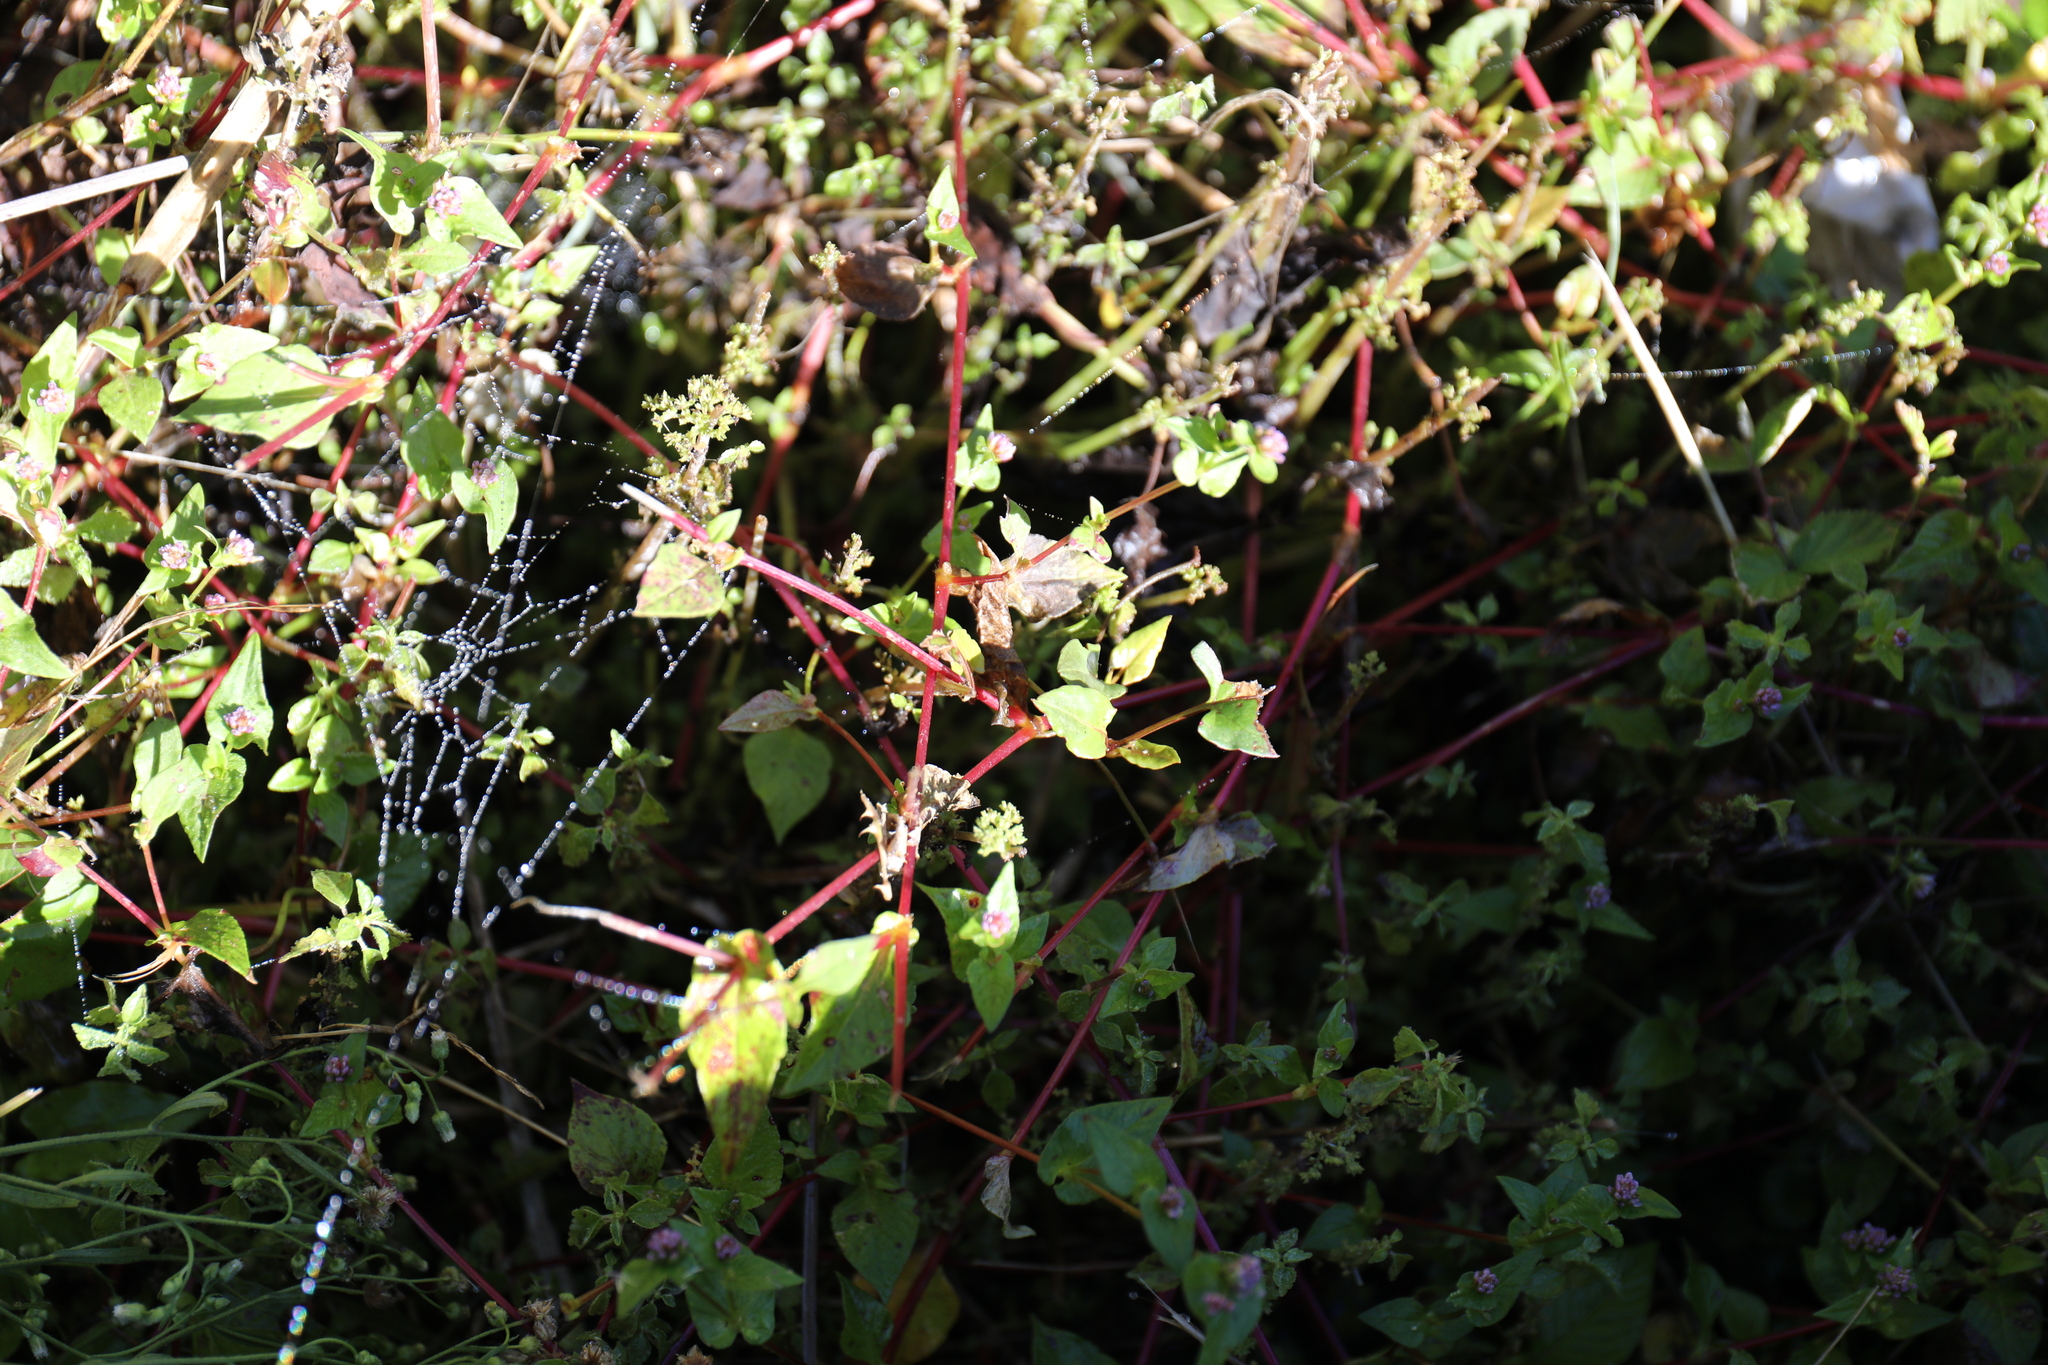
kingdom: Plantae
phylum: Tracheophyta
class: Magnoliopsida
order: Caryophyllales
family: Polygonaceae
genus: Persicaria
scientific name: Persicaria nepalensis
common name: Nepal persicaria
